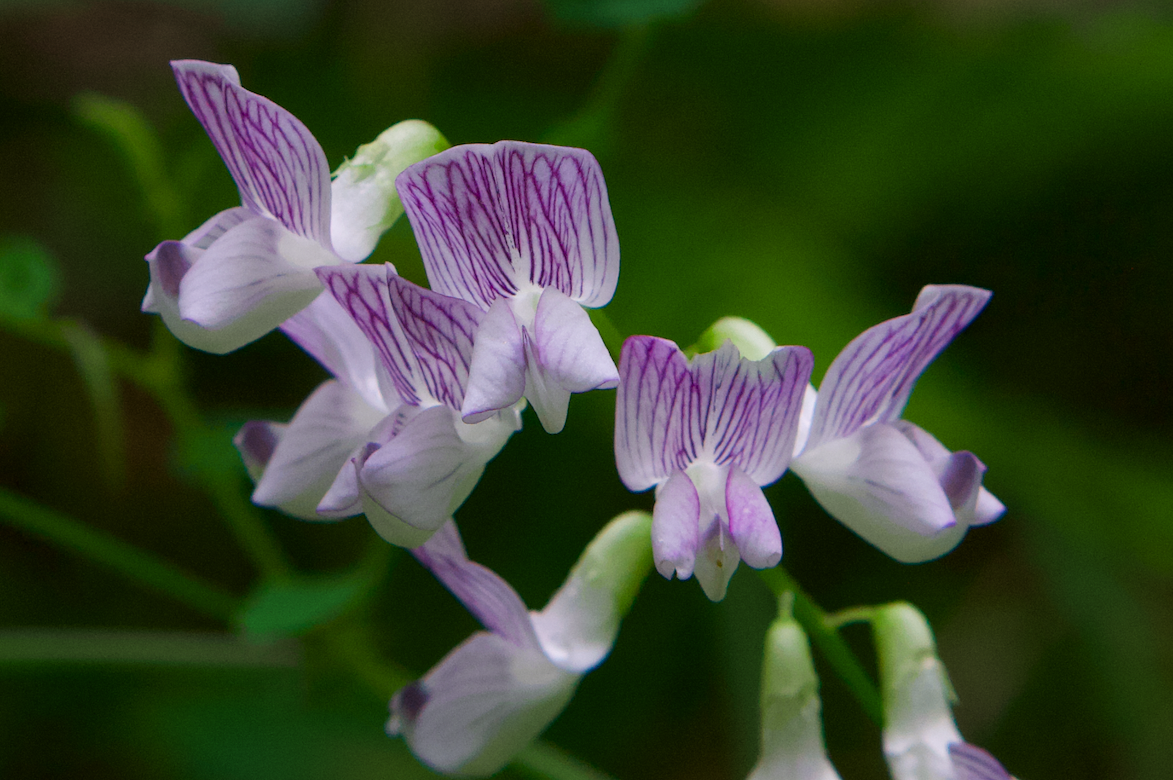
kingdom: Plantae
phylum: Tracheophyta
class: Magnoliopsida
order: Fabales
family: Fabaceae
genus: Vicia
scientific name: Vicia sylvatica
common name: Wood vetch
